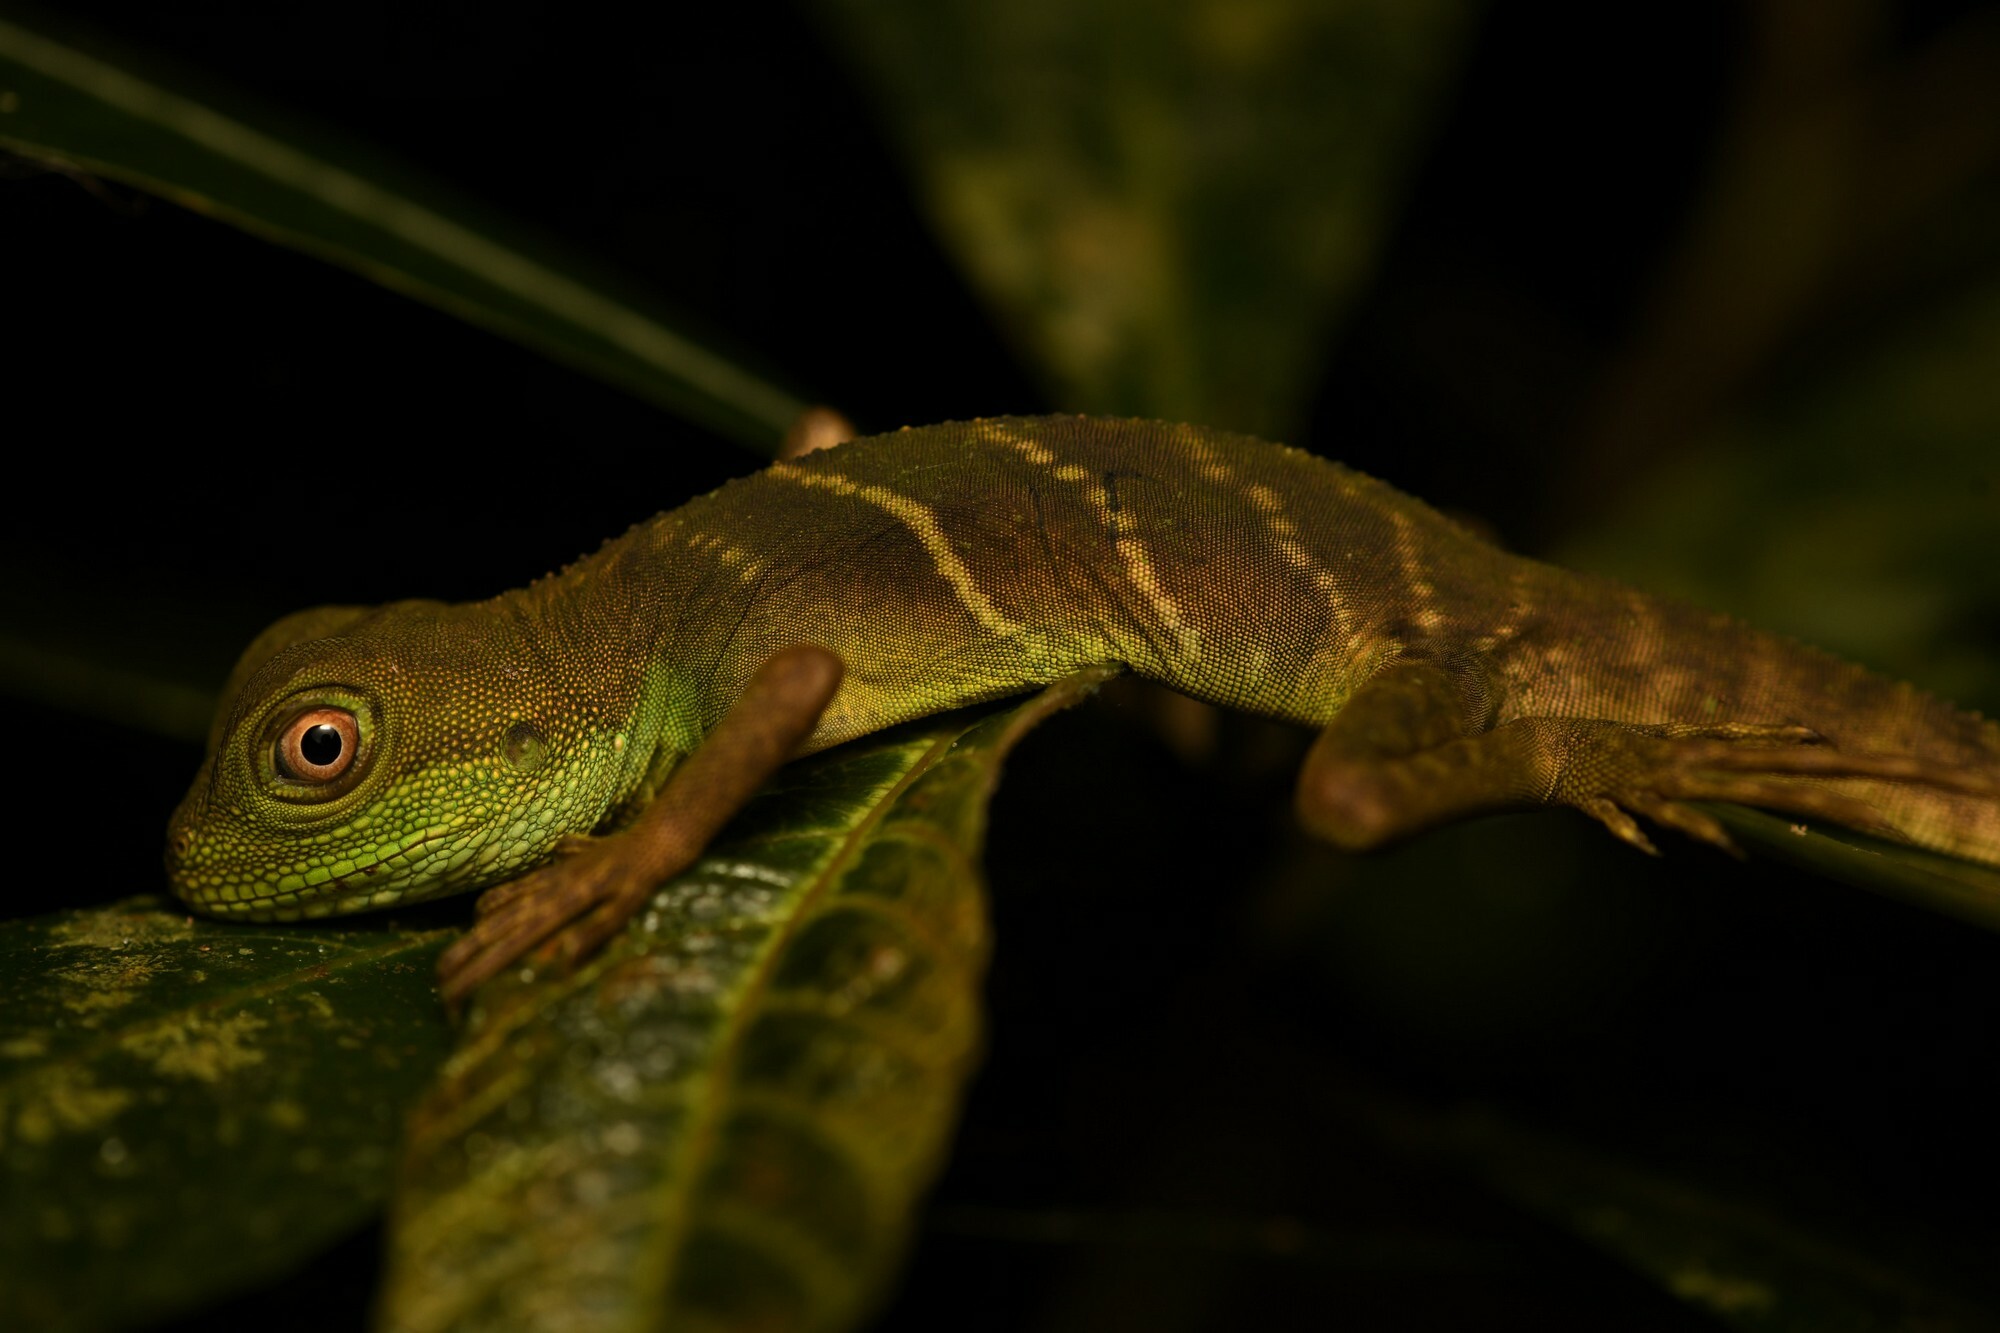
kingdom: Animalia
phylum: Chordata
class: Squamata
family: Agamidae
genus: Physignathus
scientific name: Physignathus cocincinus
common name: Asian water dragon
